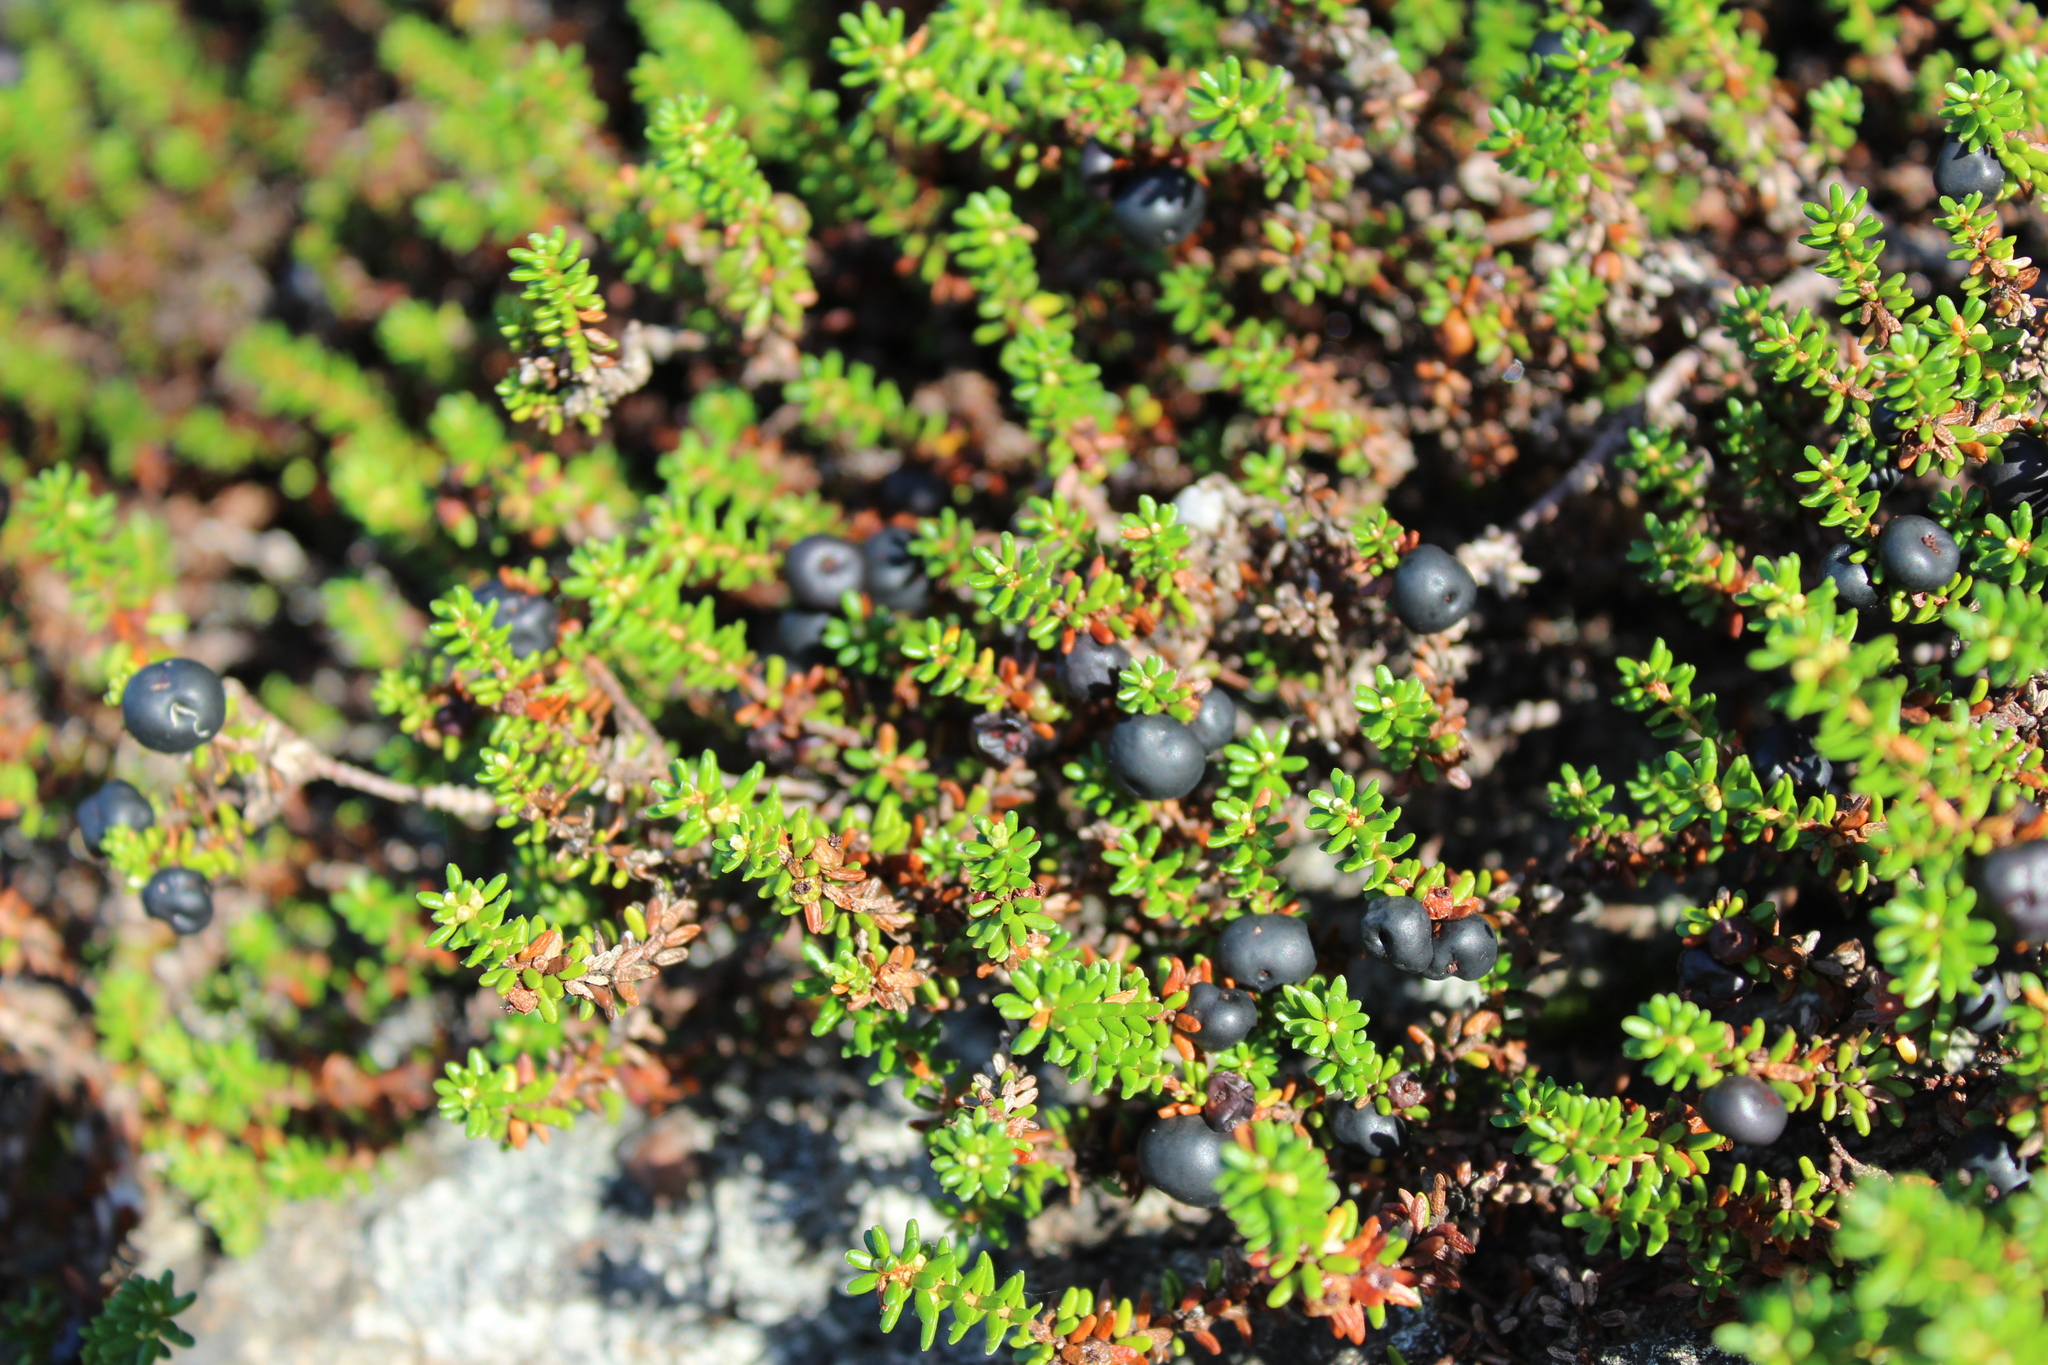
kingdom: Plantae
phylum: Tracheophyta
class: Magnoliopsida
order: Ericales
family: Ericaceae
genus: Empetrum
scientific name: Empetrum nigrum
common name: Black crowberry
